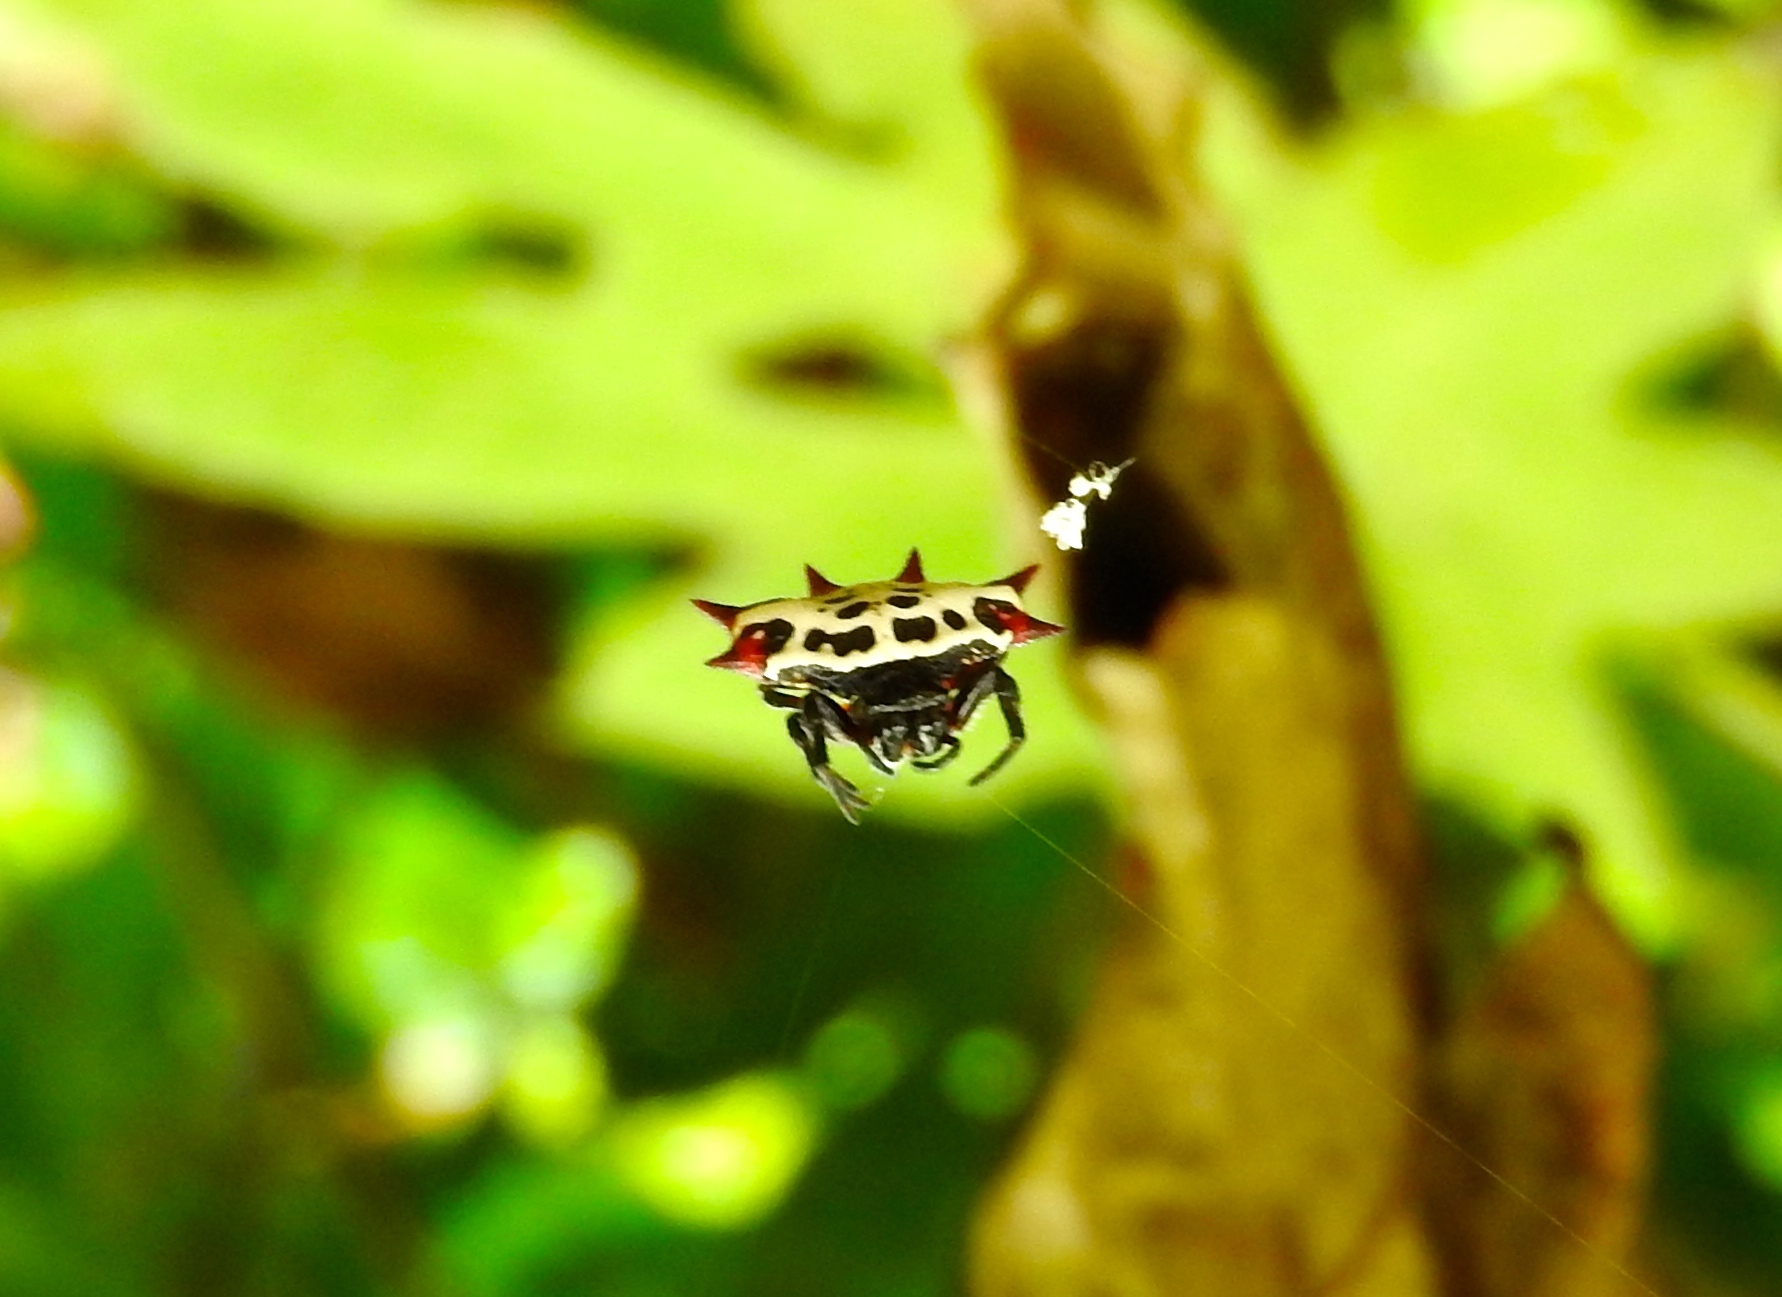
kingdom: Animalia
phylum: Arthropoda
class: Arachnida
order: Araneae
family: Araneidae
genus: Gasteracantha
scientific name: Gasteracantha cancriformis
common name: Orb weavers
